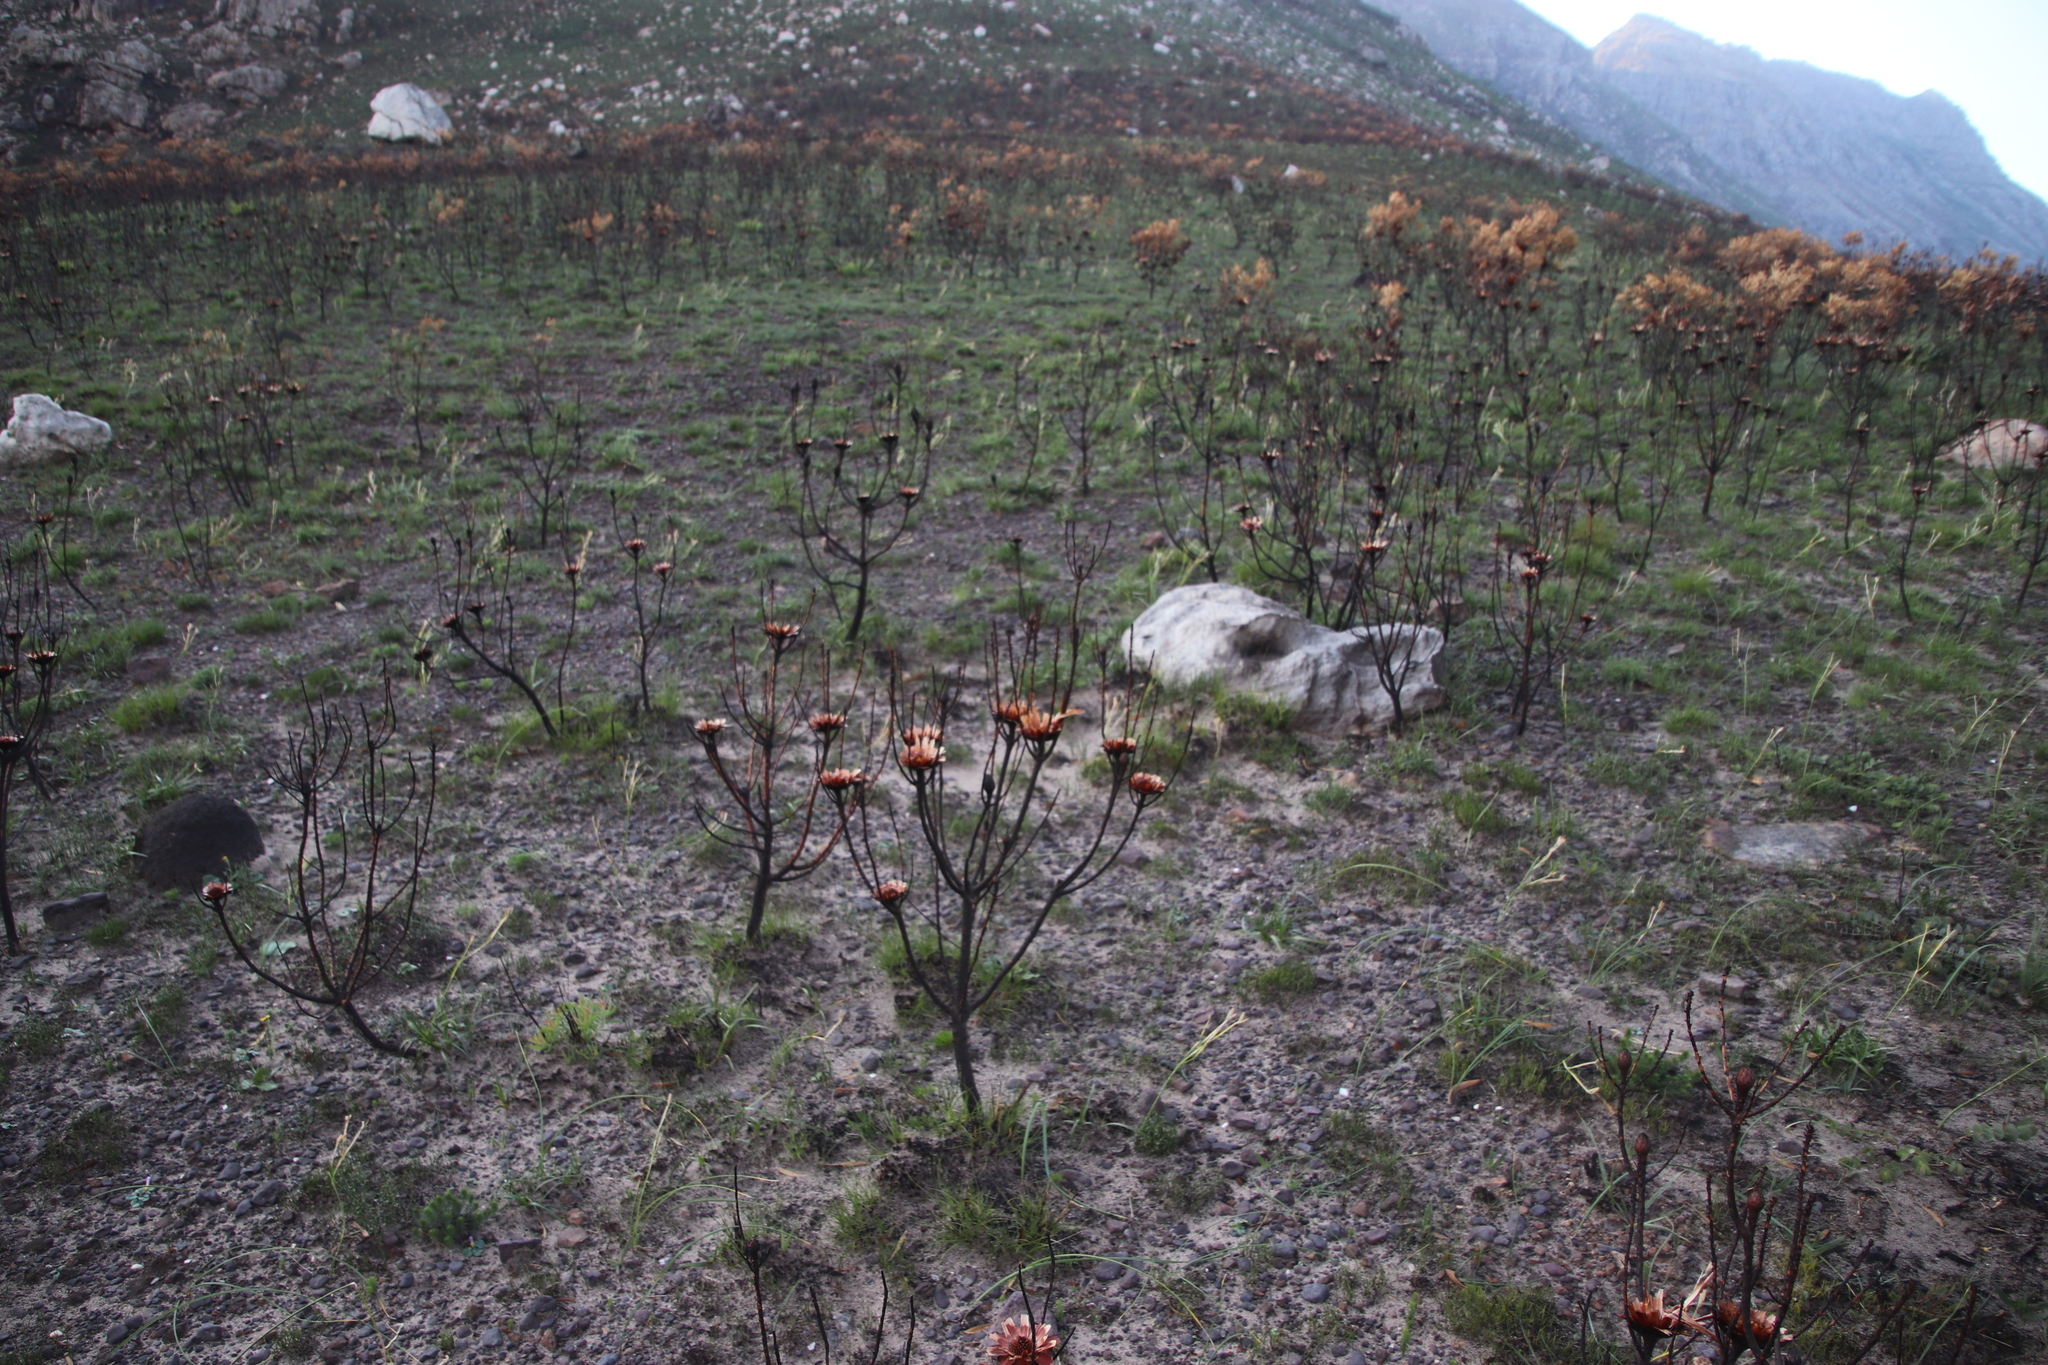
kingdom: Plantae
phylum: Tracheophyta
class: Magnoliopsida
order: Proteales
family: Proteaceae
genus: Protea
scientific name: Protea repens
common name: Sugarbush
